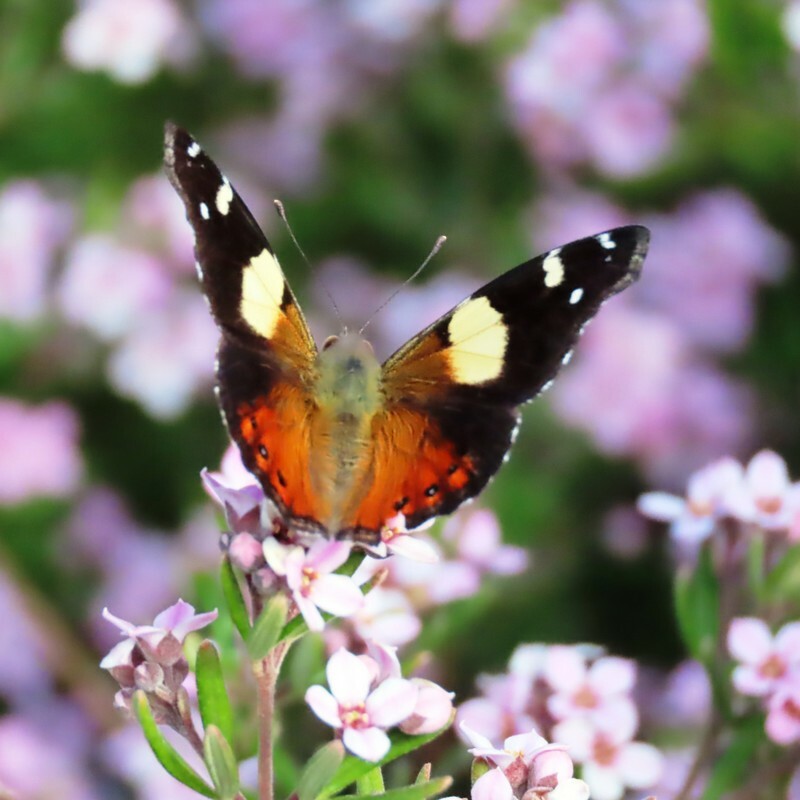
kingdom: Animalia
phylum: Arthropoda
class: Insecta
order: Lepidoptera
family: Nymphalidae
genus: Vanessa
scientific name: Vanessa itea
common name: Yellow admiral
